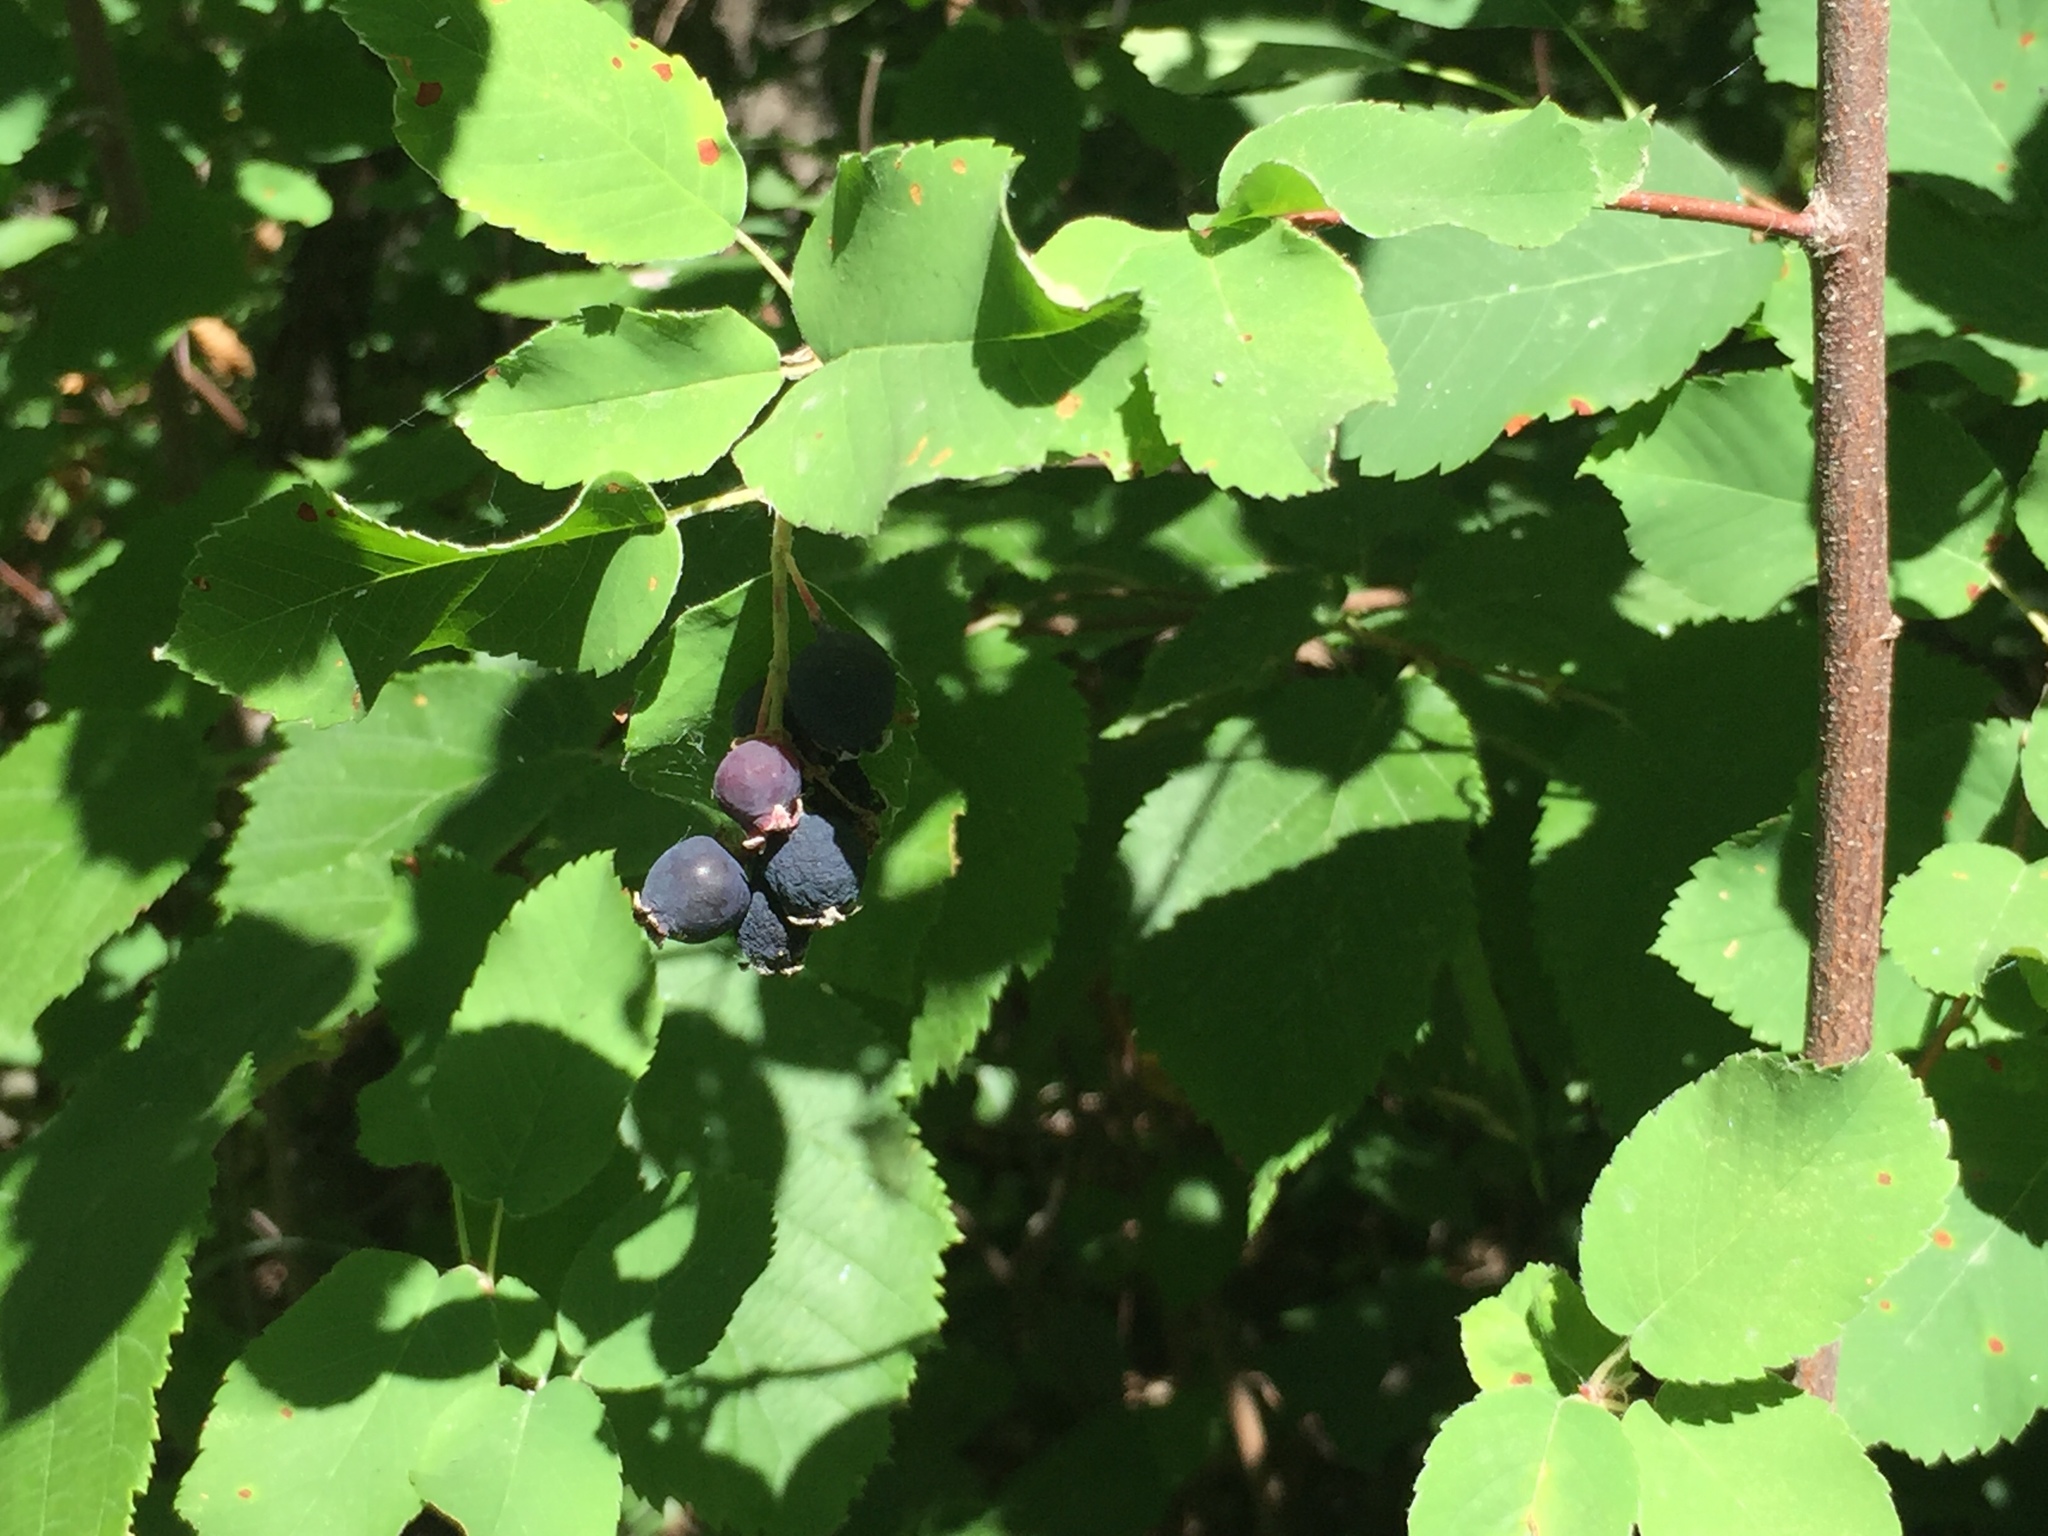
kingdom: Plantae
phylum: Tracheophyta
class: Magnoliopsida
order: Rosales
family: Rosaceae
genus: Amelanchier
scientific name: Amelanchier alnifolia
